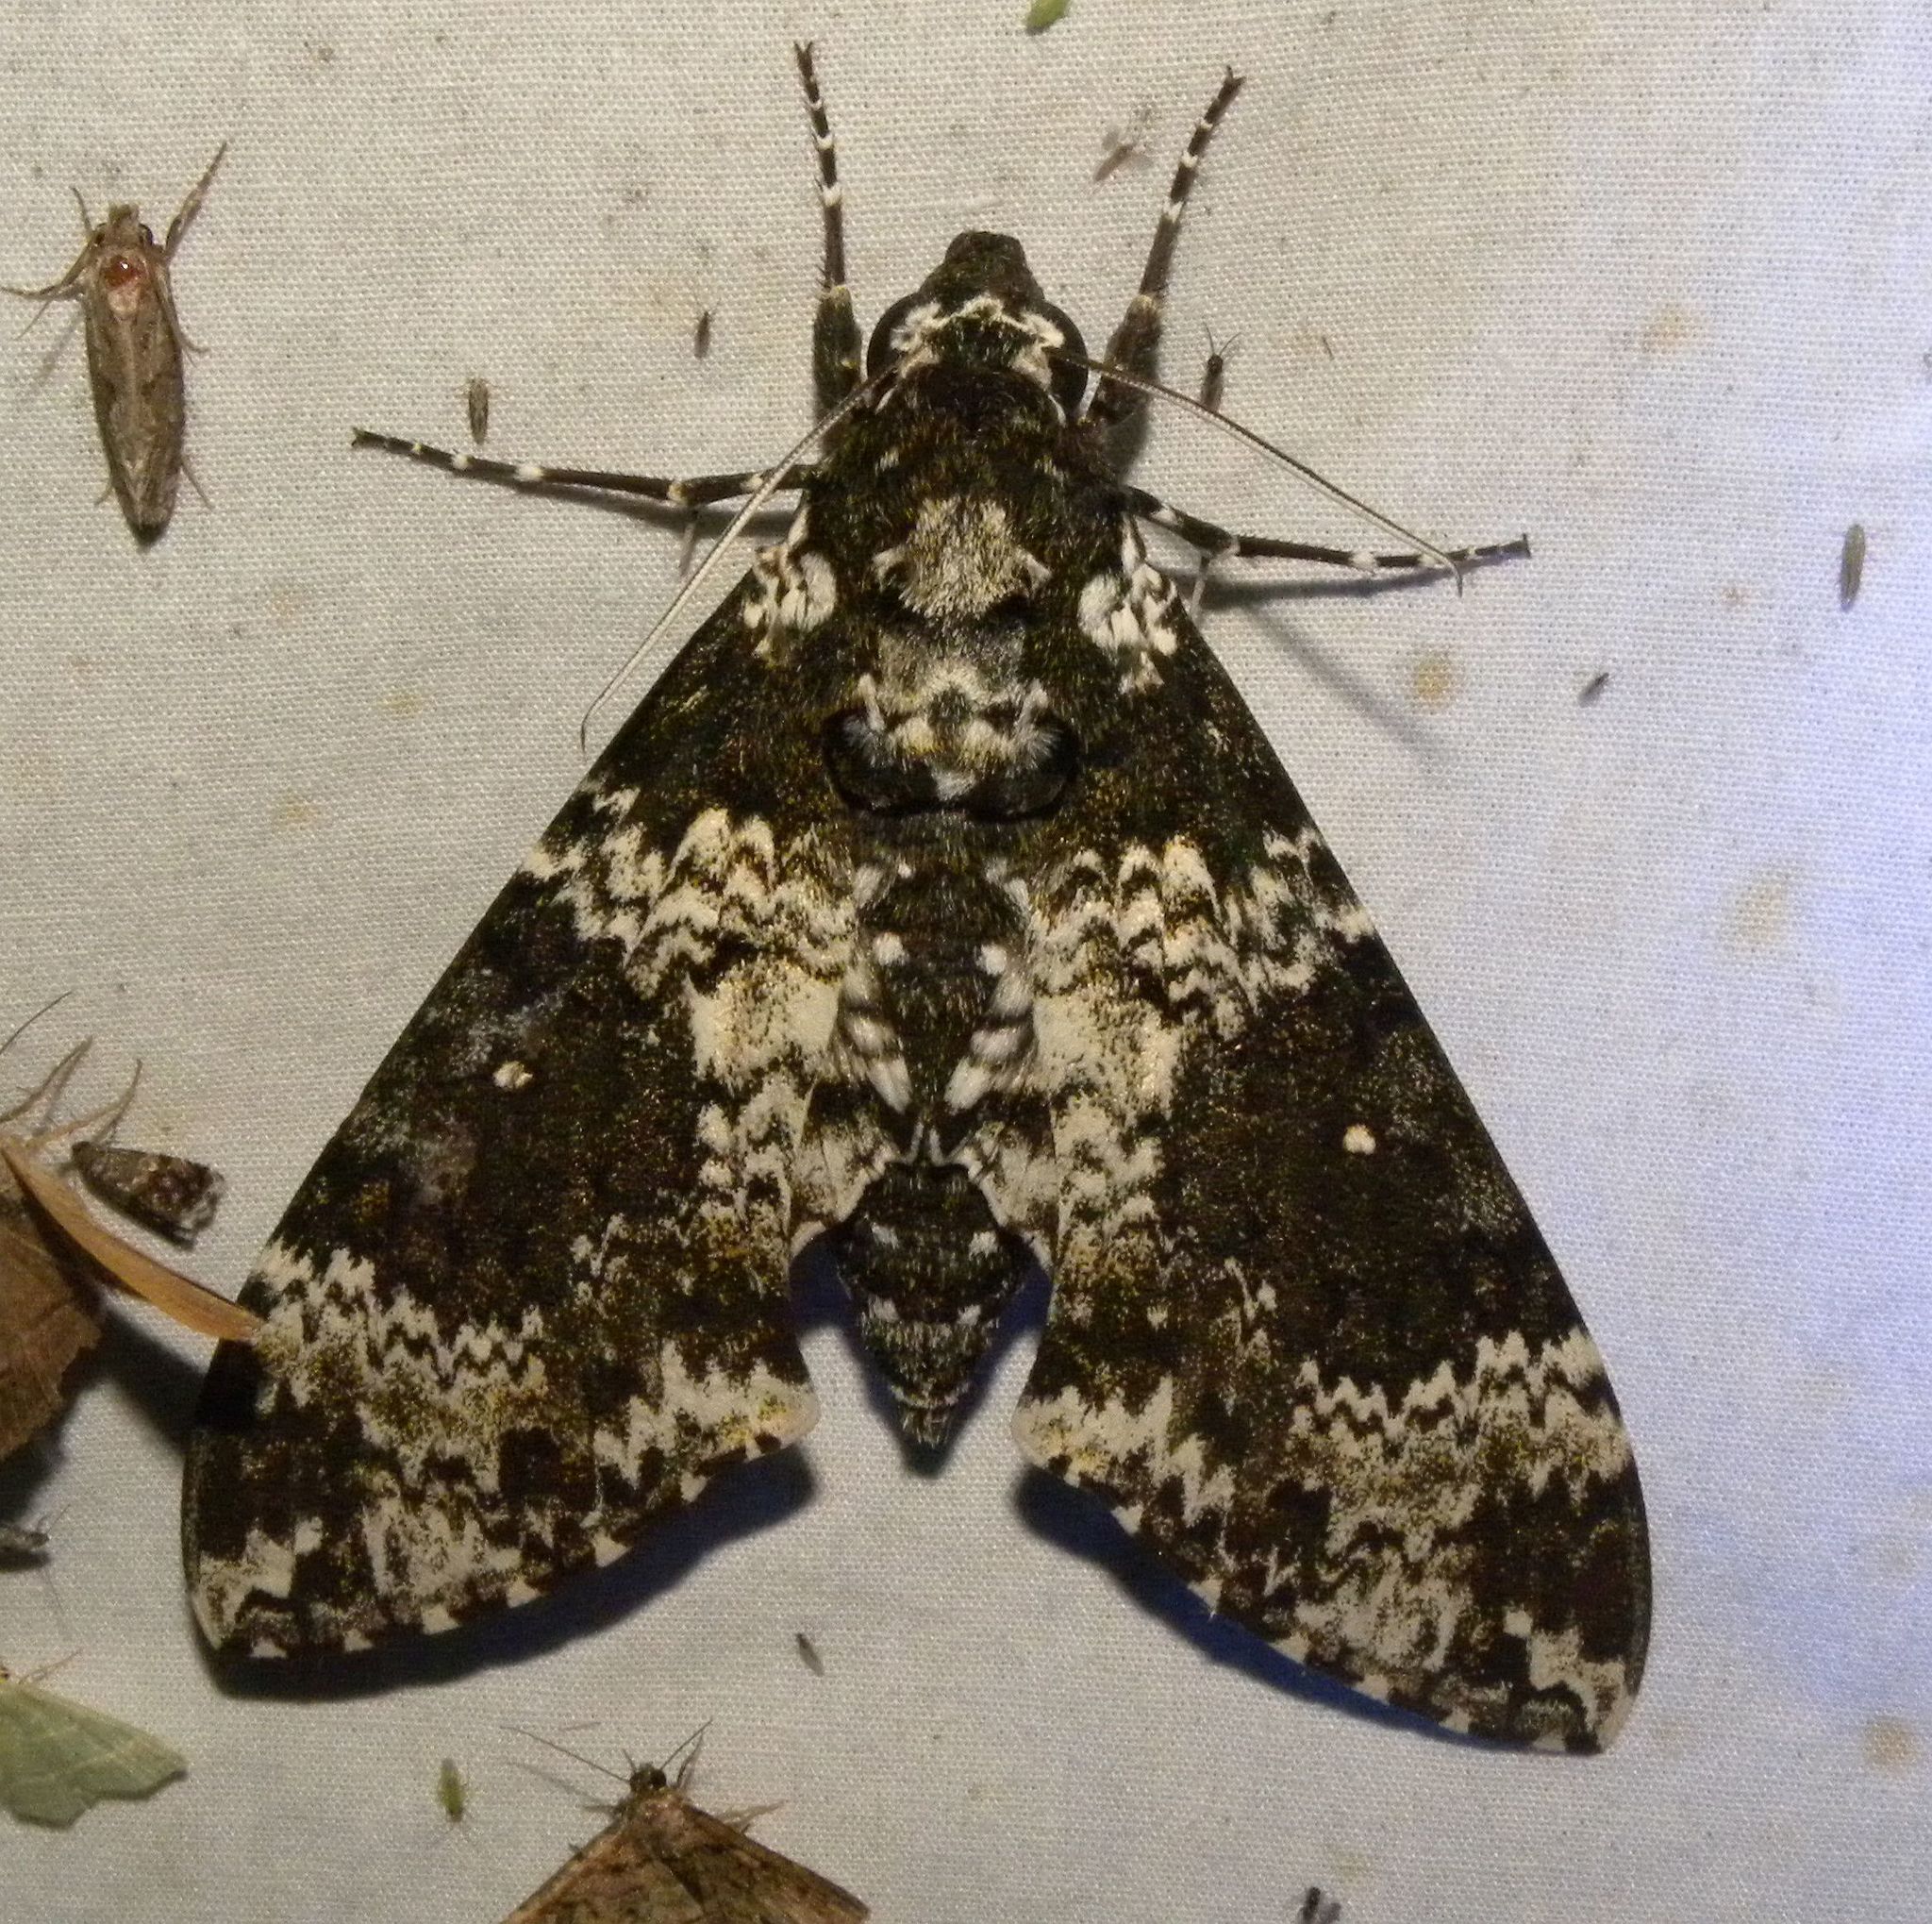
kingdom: Animalia
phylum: Arthropoda
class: Insecta
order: Lepidoptera
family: Sphingidae
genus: Manduca
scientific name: Manduca rustica
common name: Rustic sphinx
